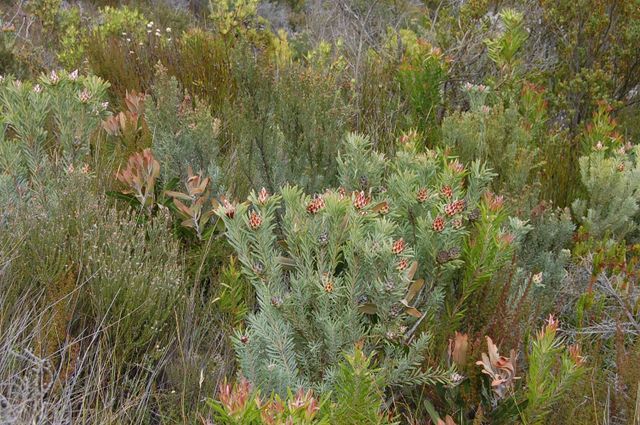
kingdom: Plantae
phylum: Tracheophyta
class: Magnoliopsida
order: Proteales
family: Proteaceae
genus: Leucadendron
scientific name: Leucadendron rubrum
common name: Spinning top
